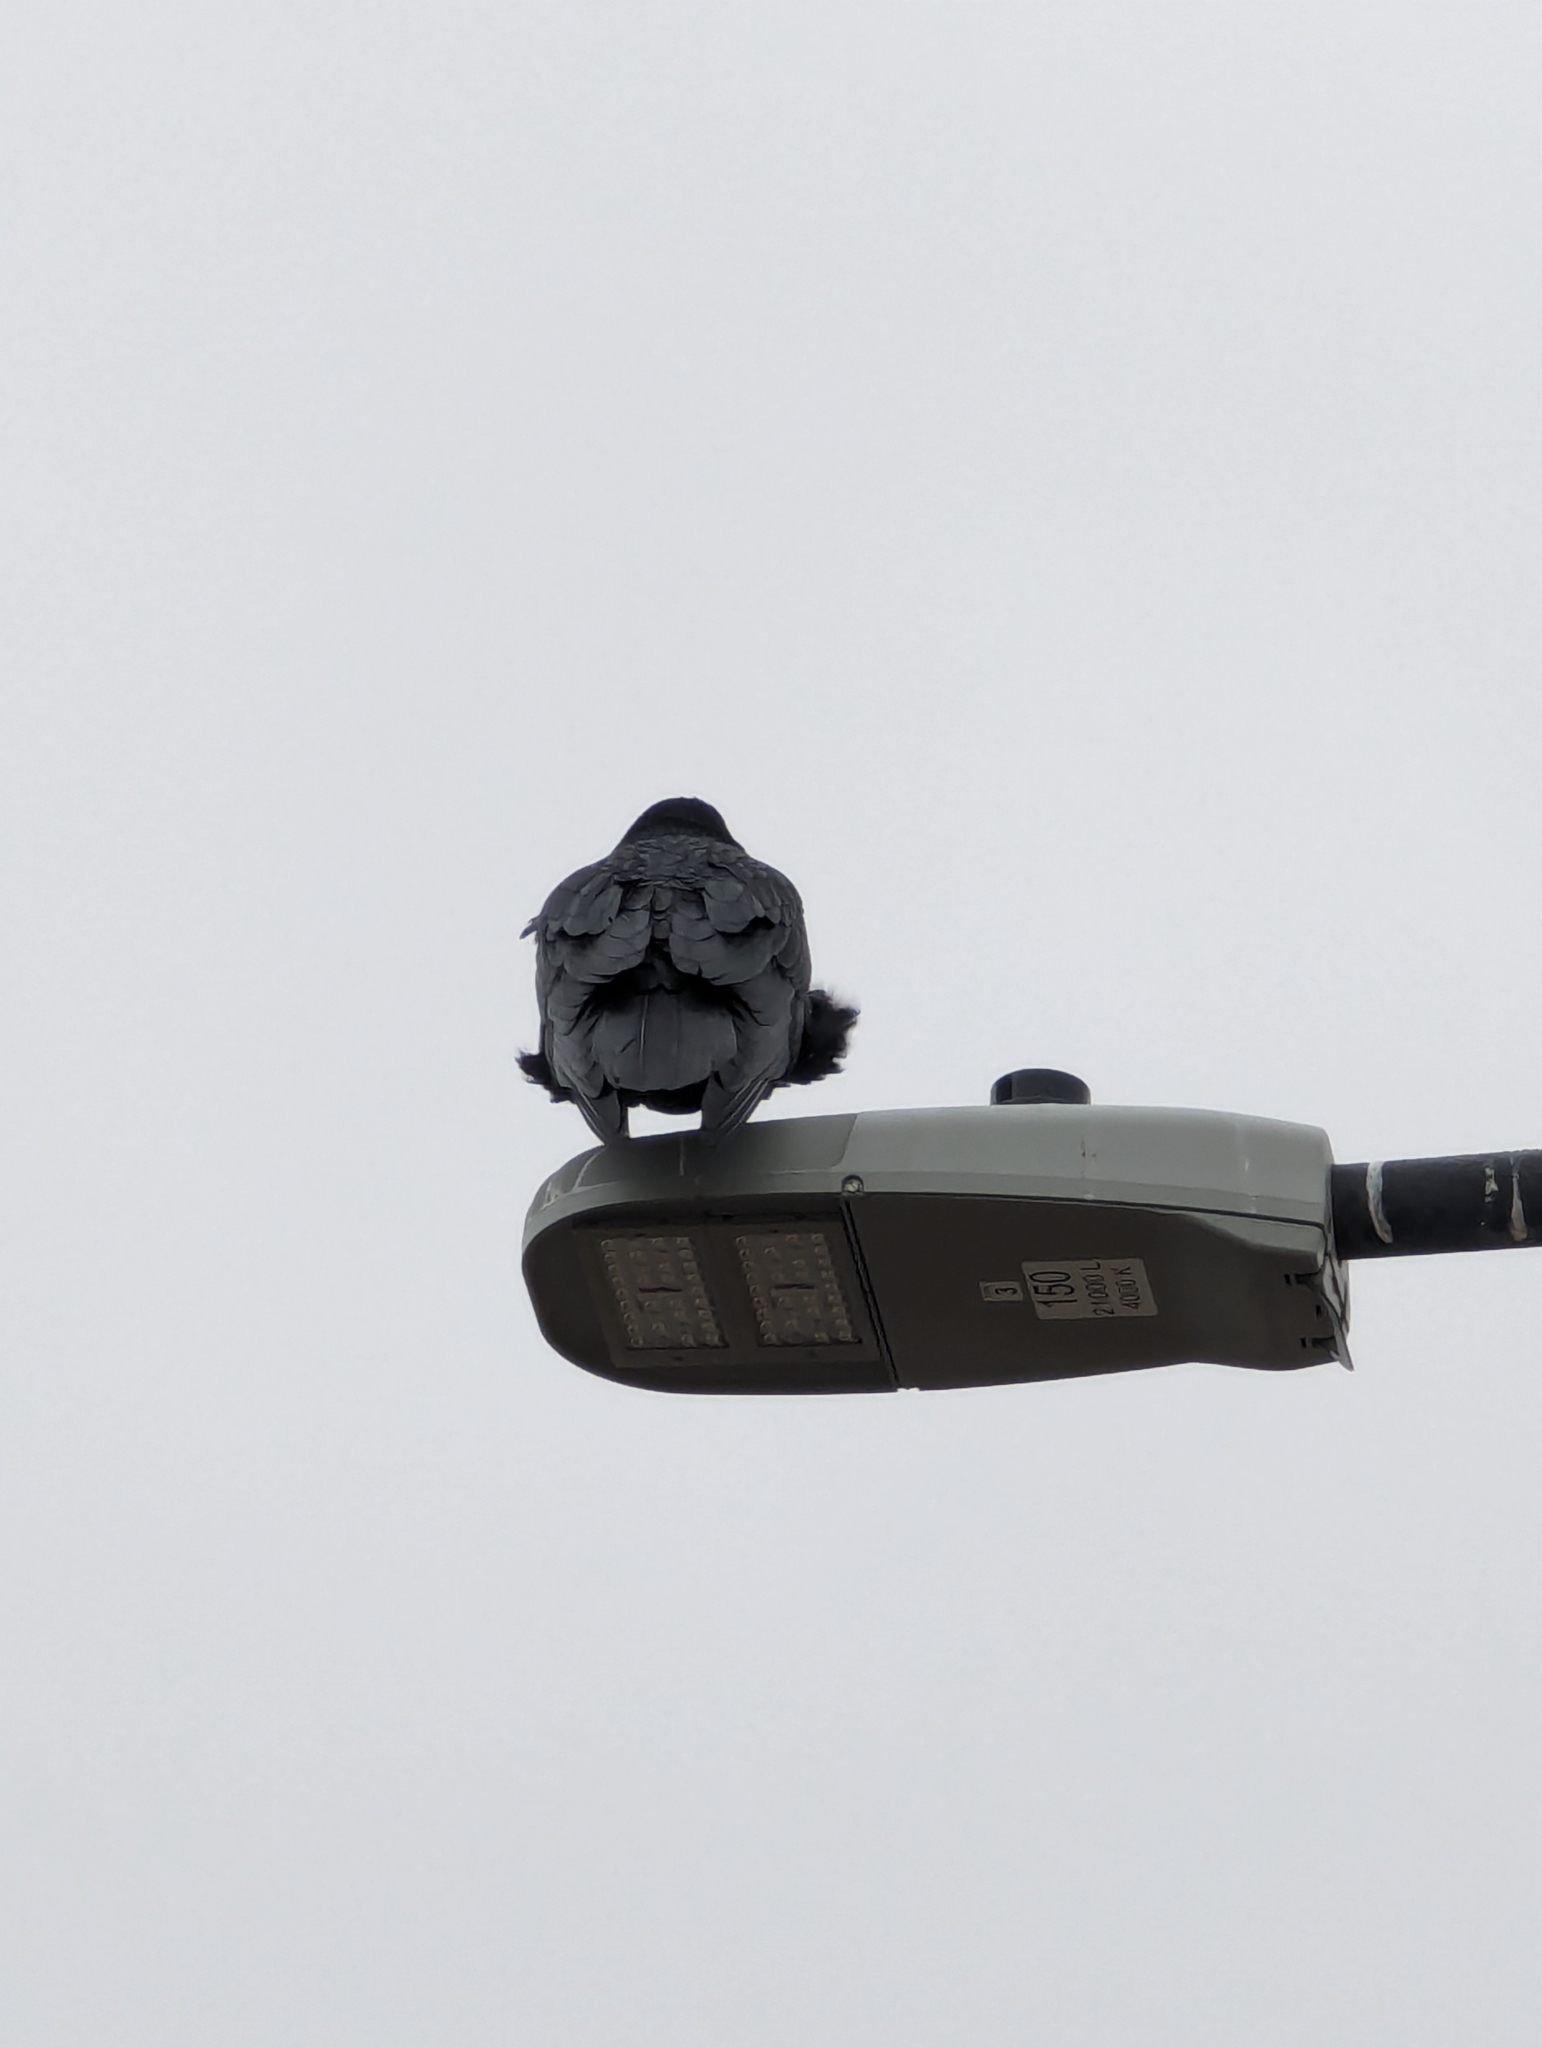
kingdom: Animalia
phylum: Chordata
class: Aves
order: Passeriformes
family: Corvidae
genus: Corvus
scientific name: Corvus corax
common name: Common raven
